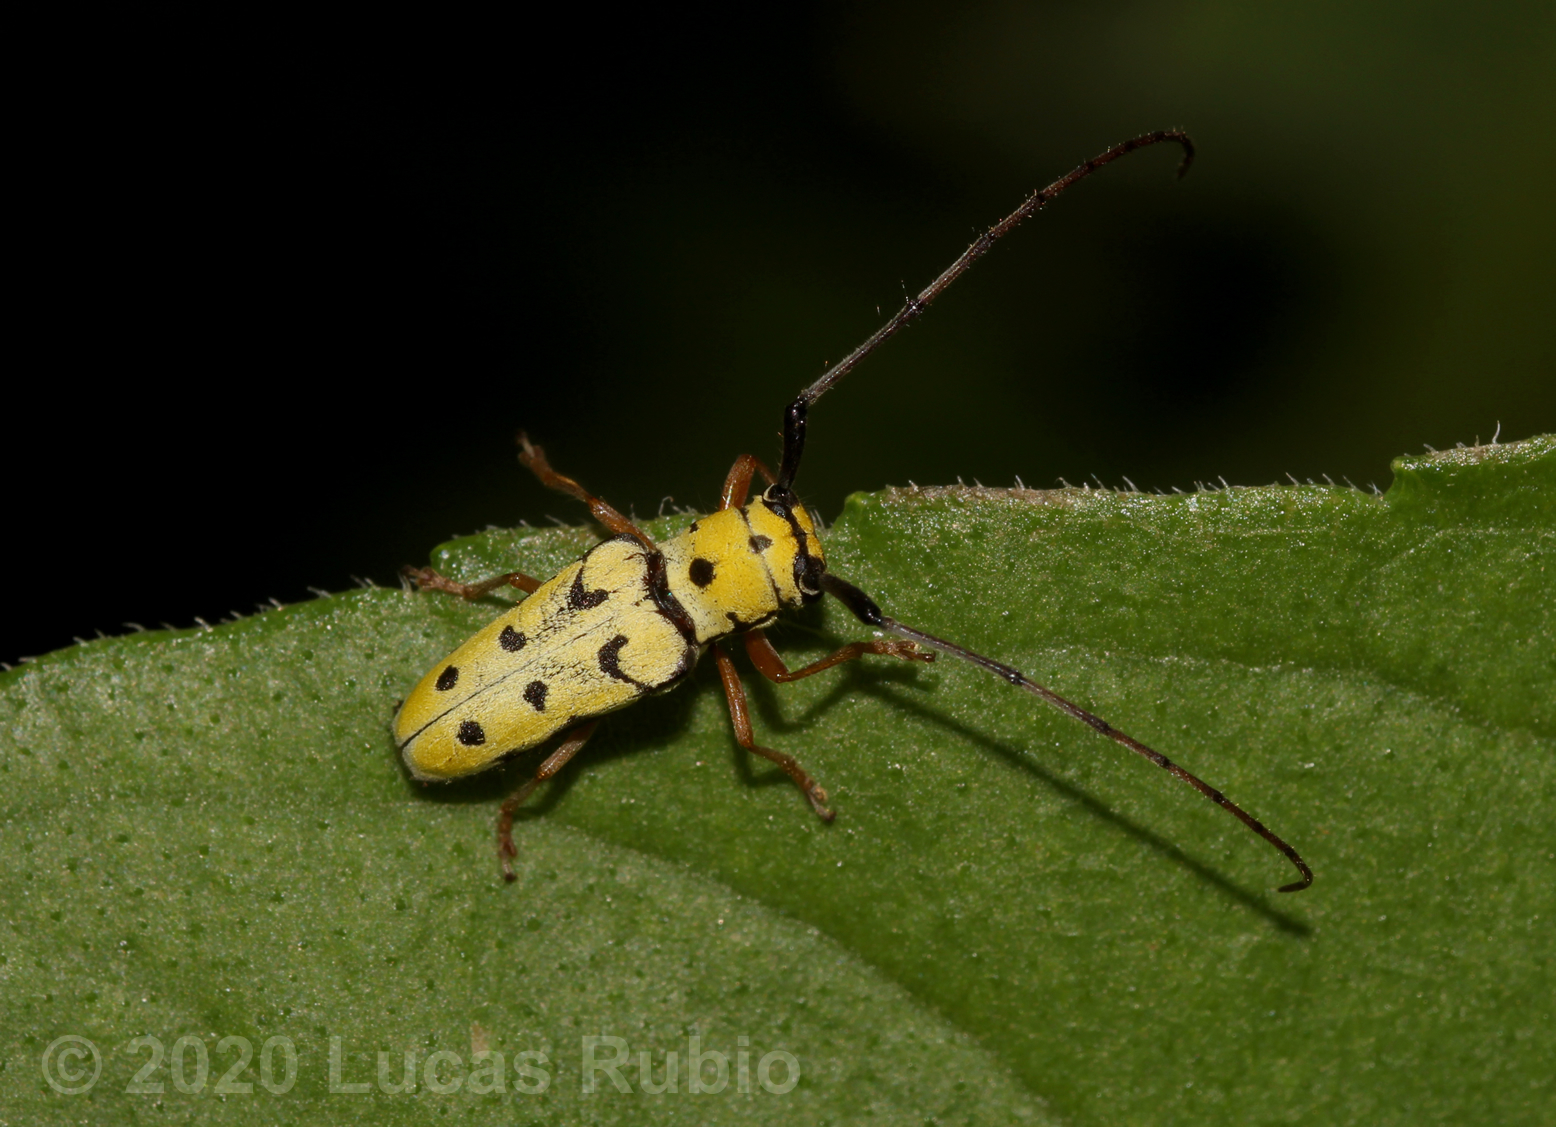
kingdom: Animalia
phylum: Arthropoda
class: Insecta
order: Coleoptera
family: Cerambycidae
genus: Zeale
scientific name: Zeale nigromaculata
